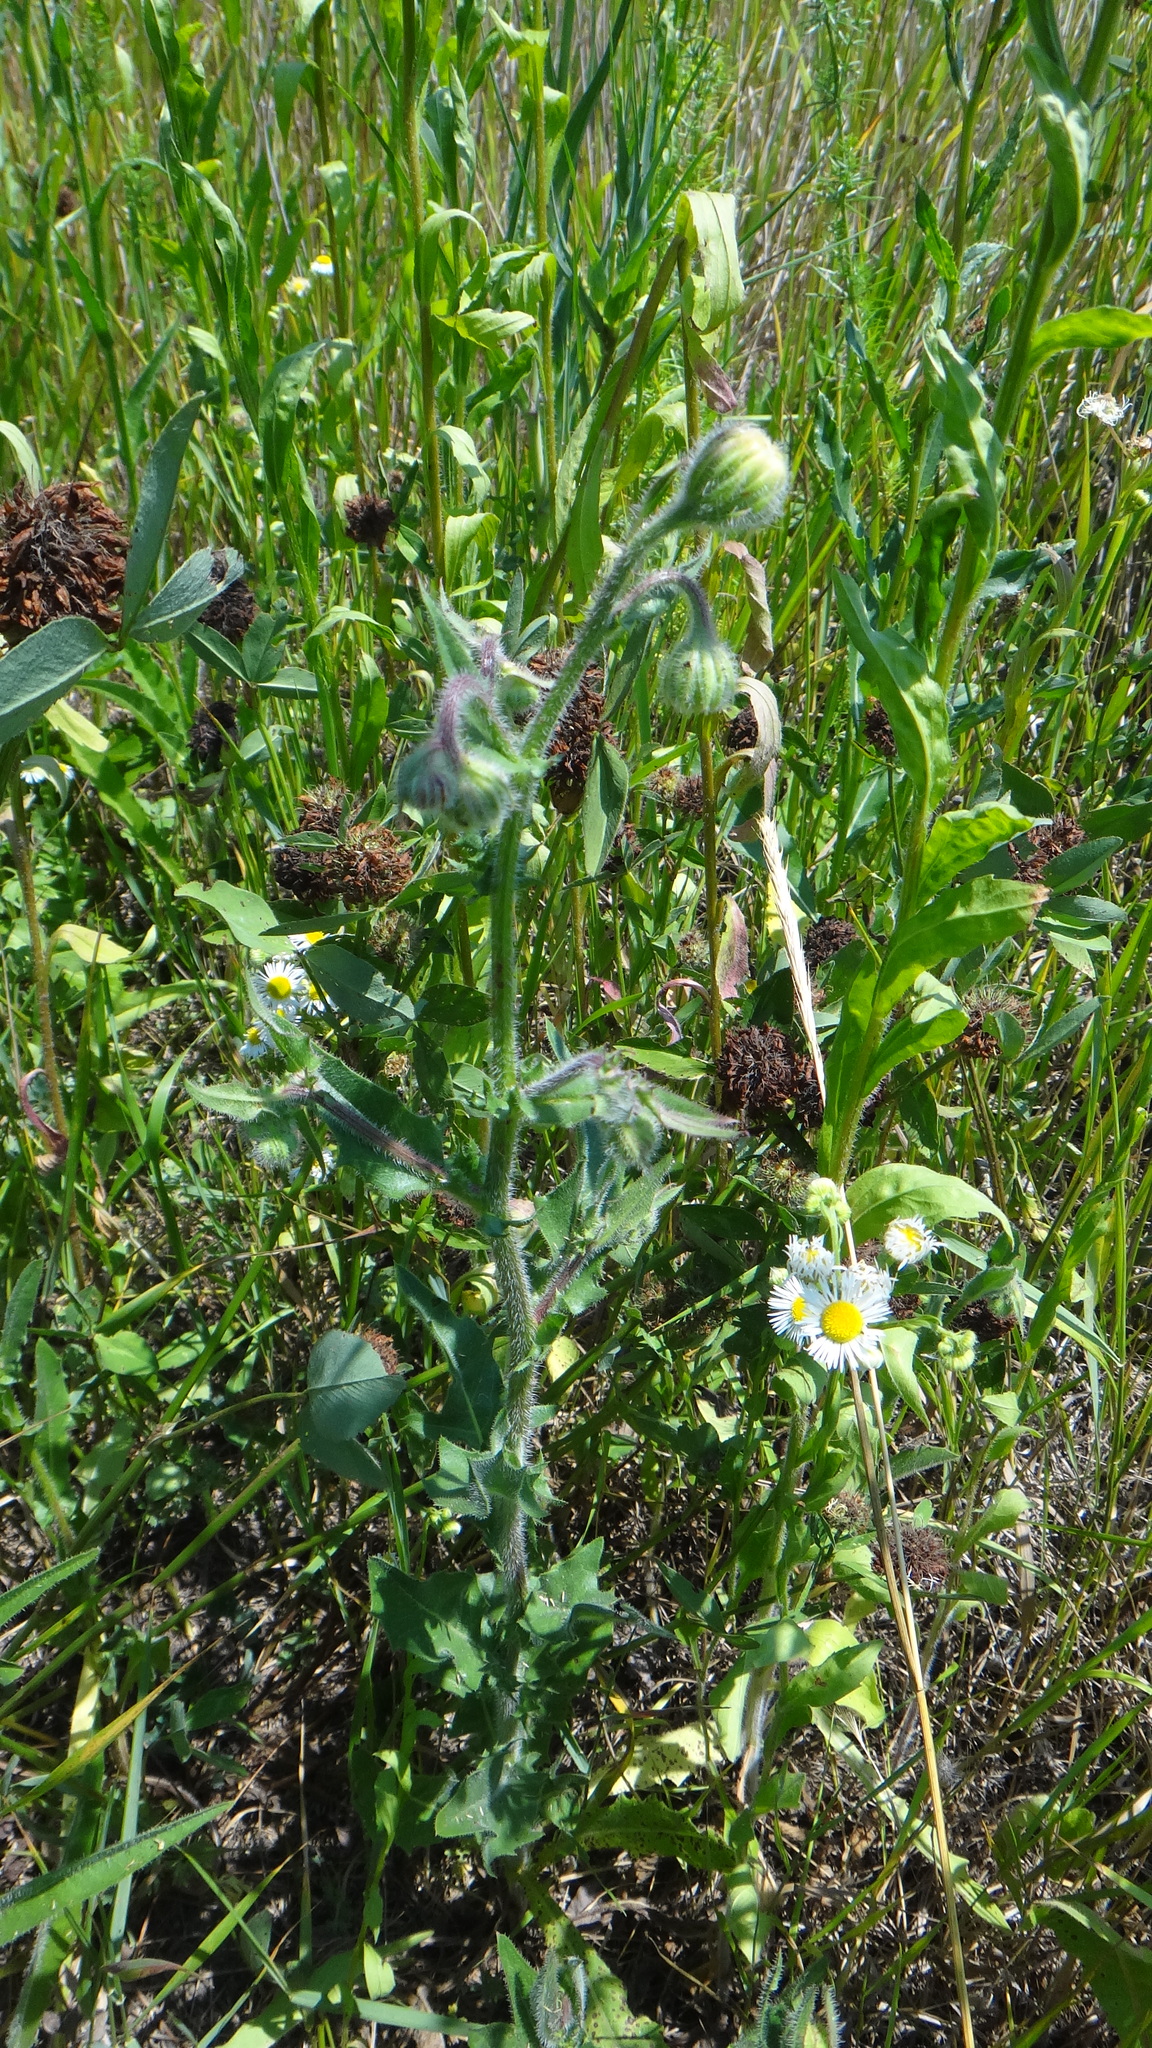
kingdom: Plantae
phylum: Tracheophyta
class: Magnoliopsida
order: Asterales
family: Asteraceae
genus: Crepis
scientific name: Crepis foetida
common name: Stinking hawk's-beard
